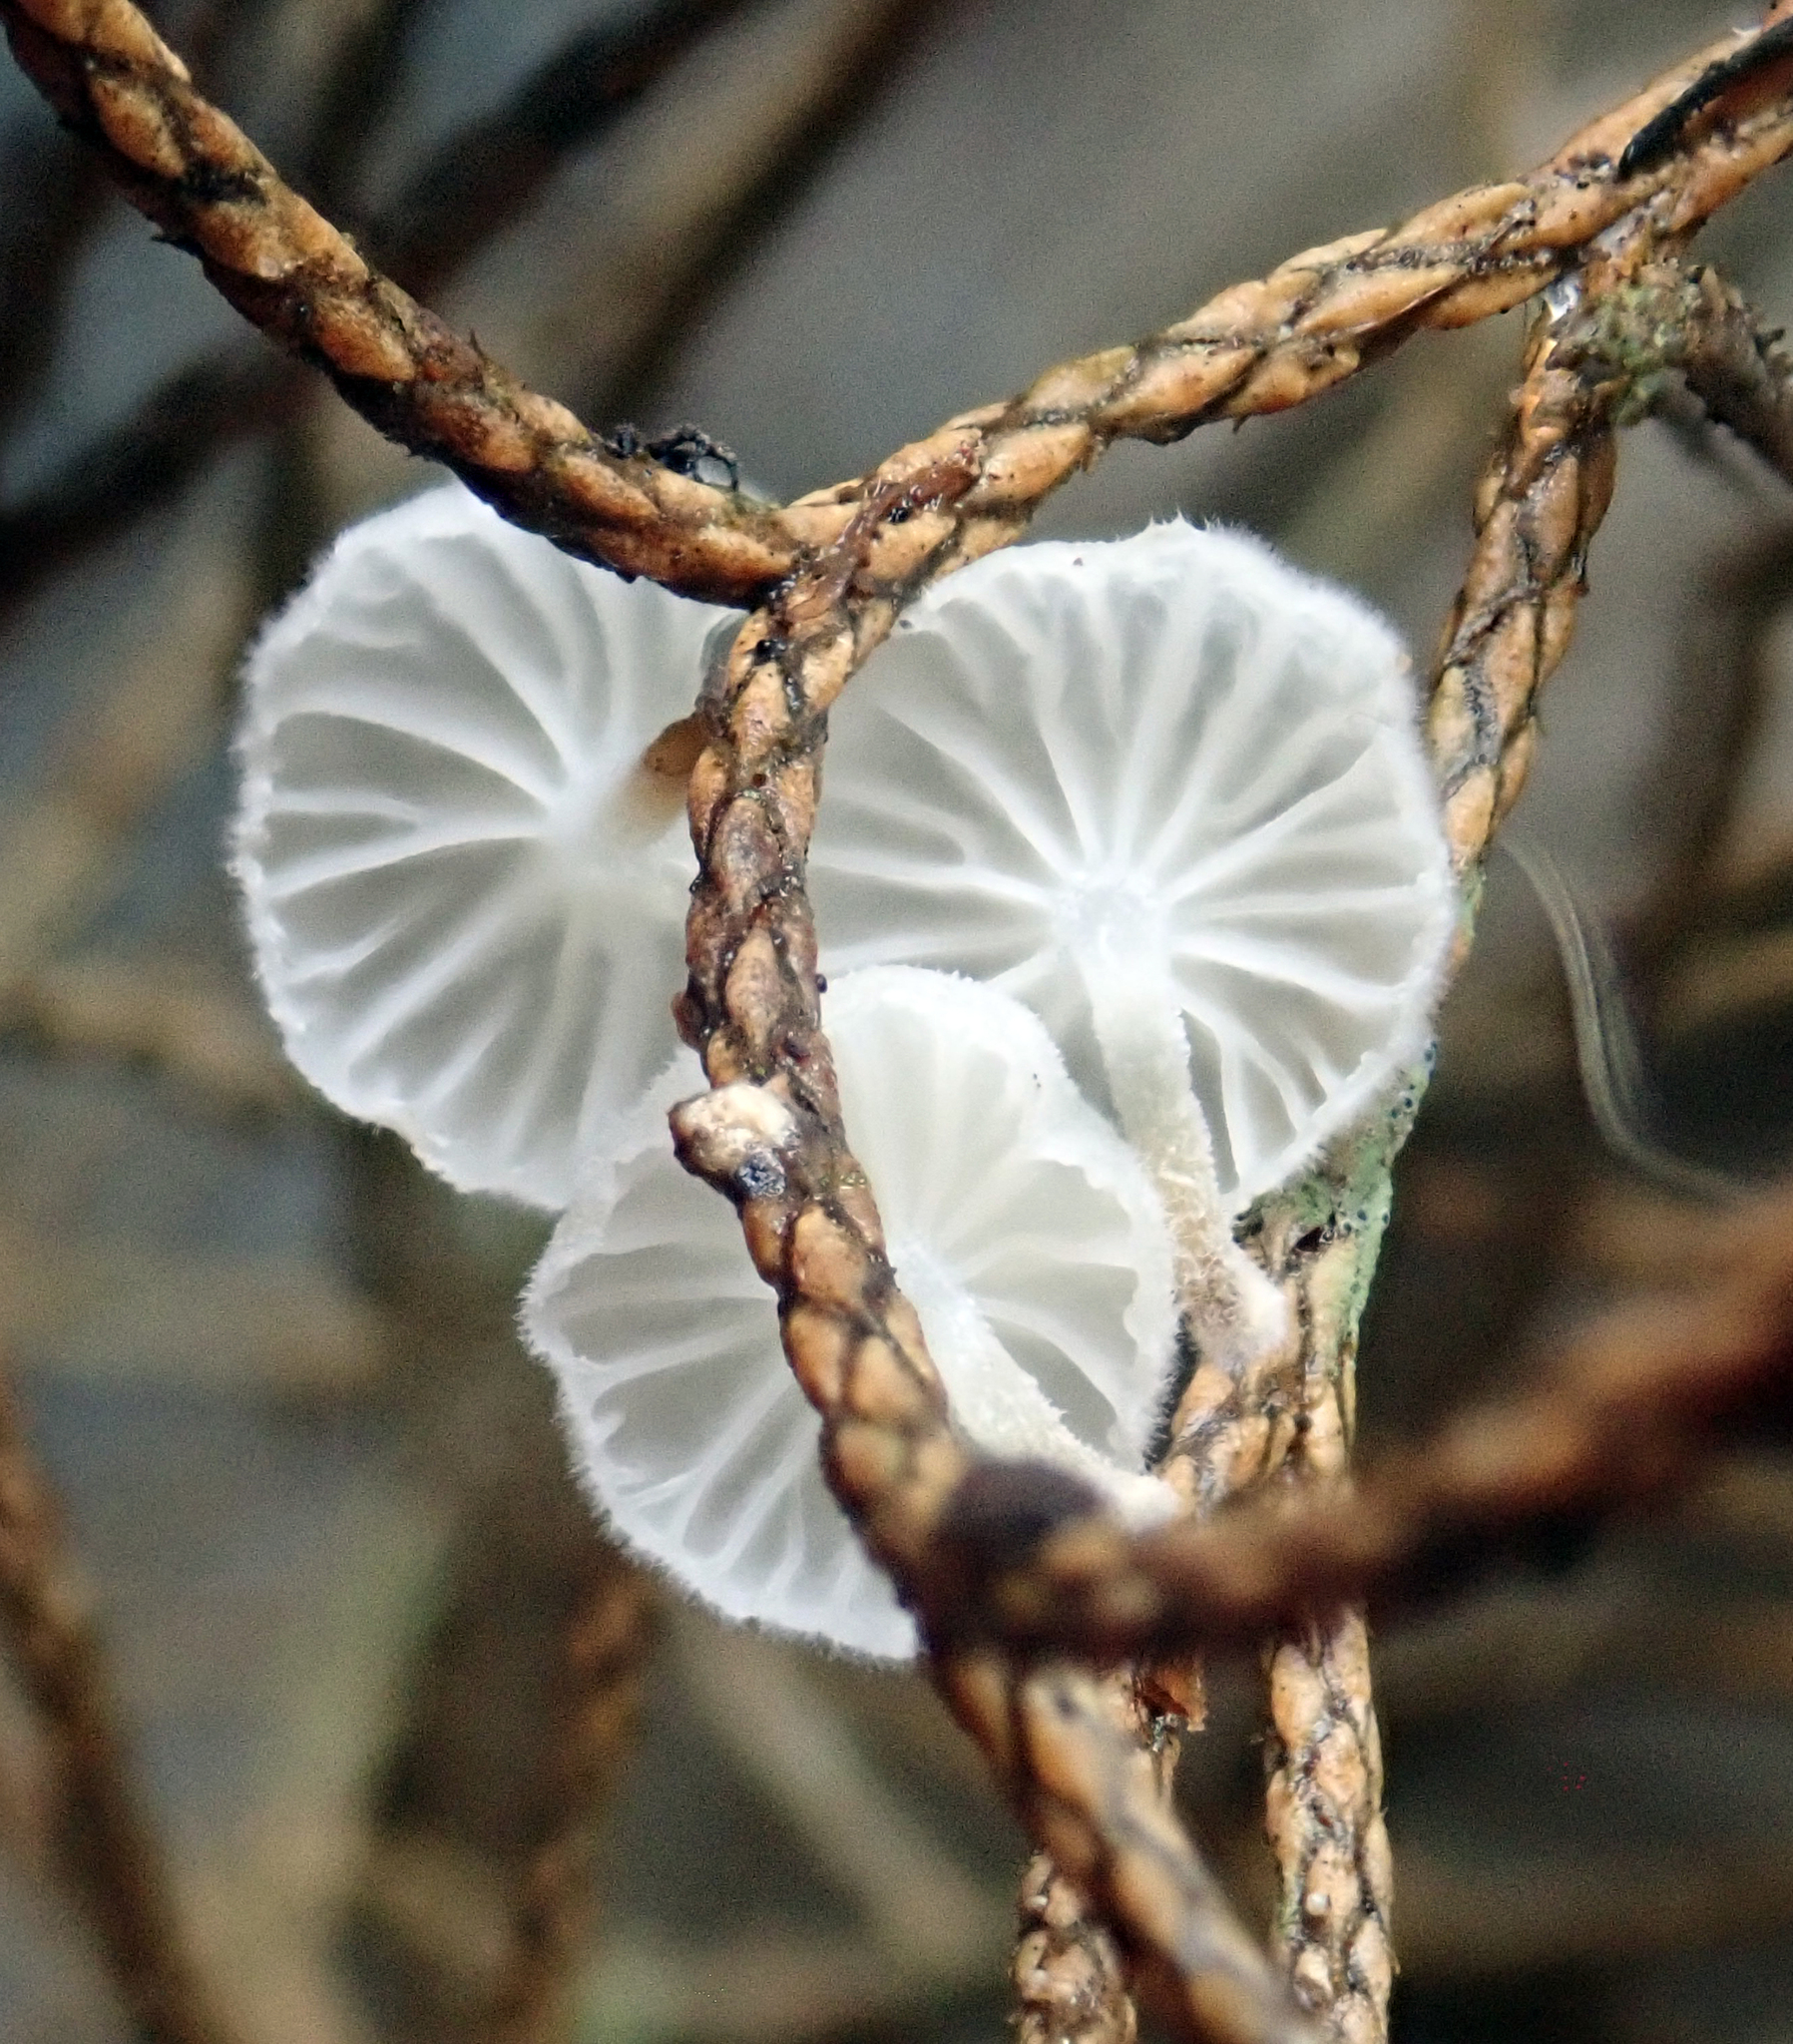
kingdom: Fungi
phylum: Basidiomycota
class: Agaricomycetes
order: Agaricales
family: Porotheleaceae
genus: Porotheleum
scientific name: Porotheleum albodescendens
